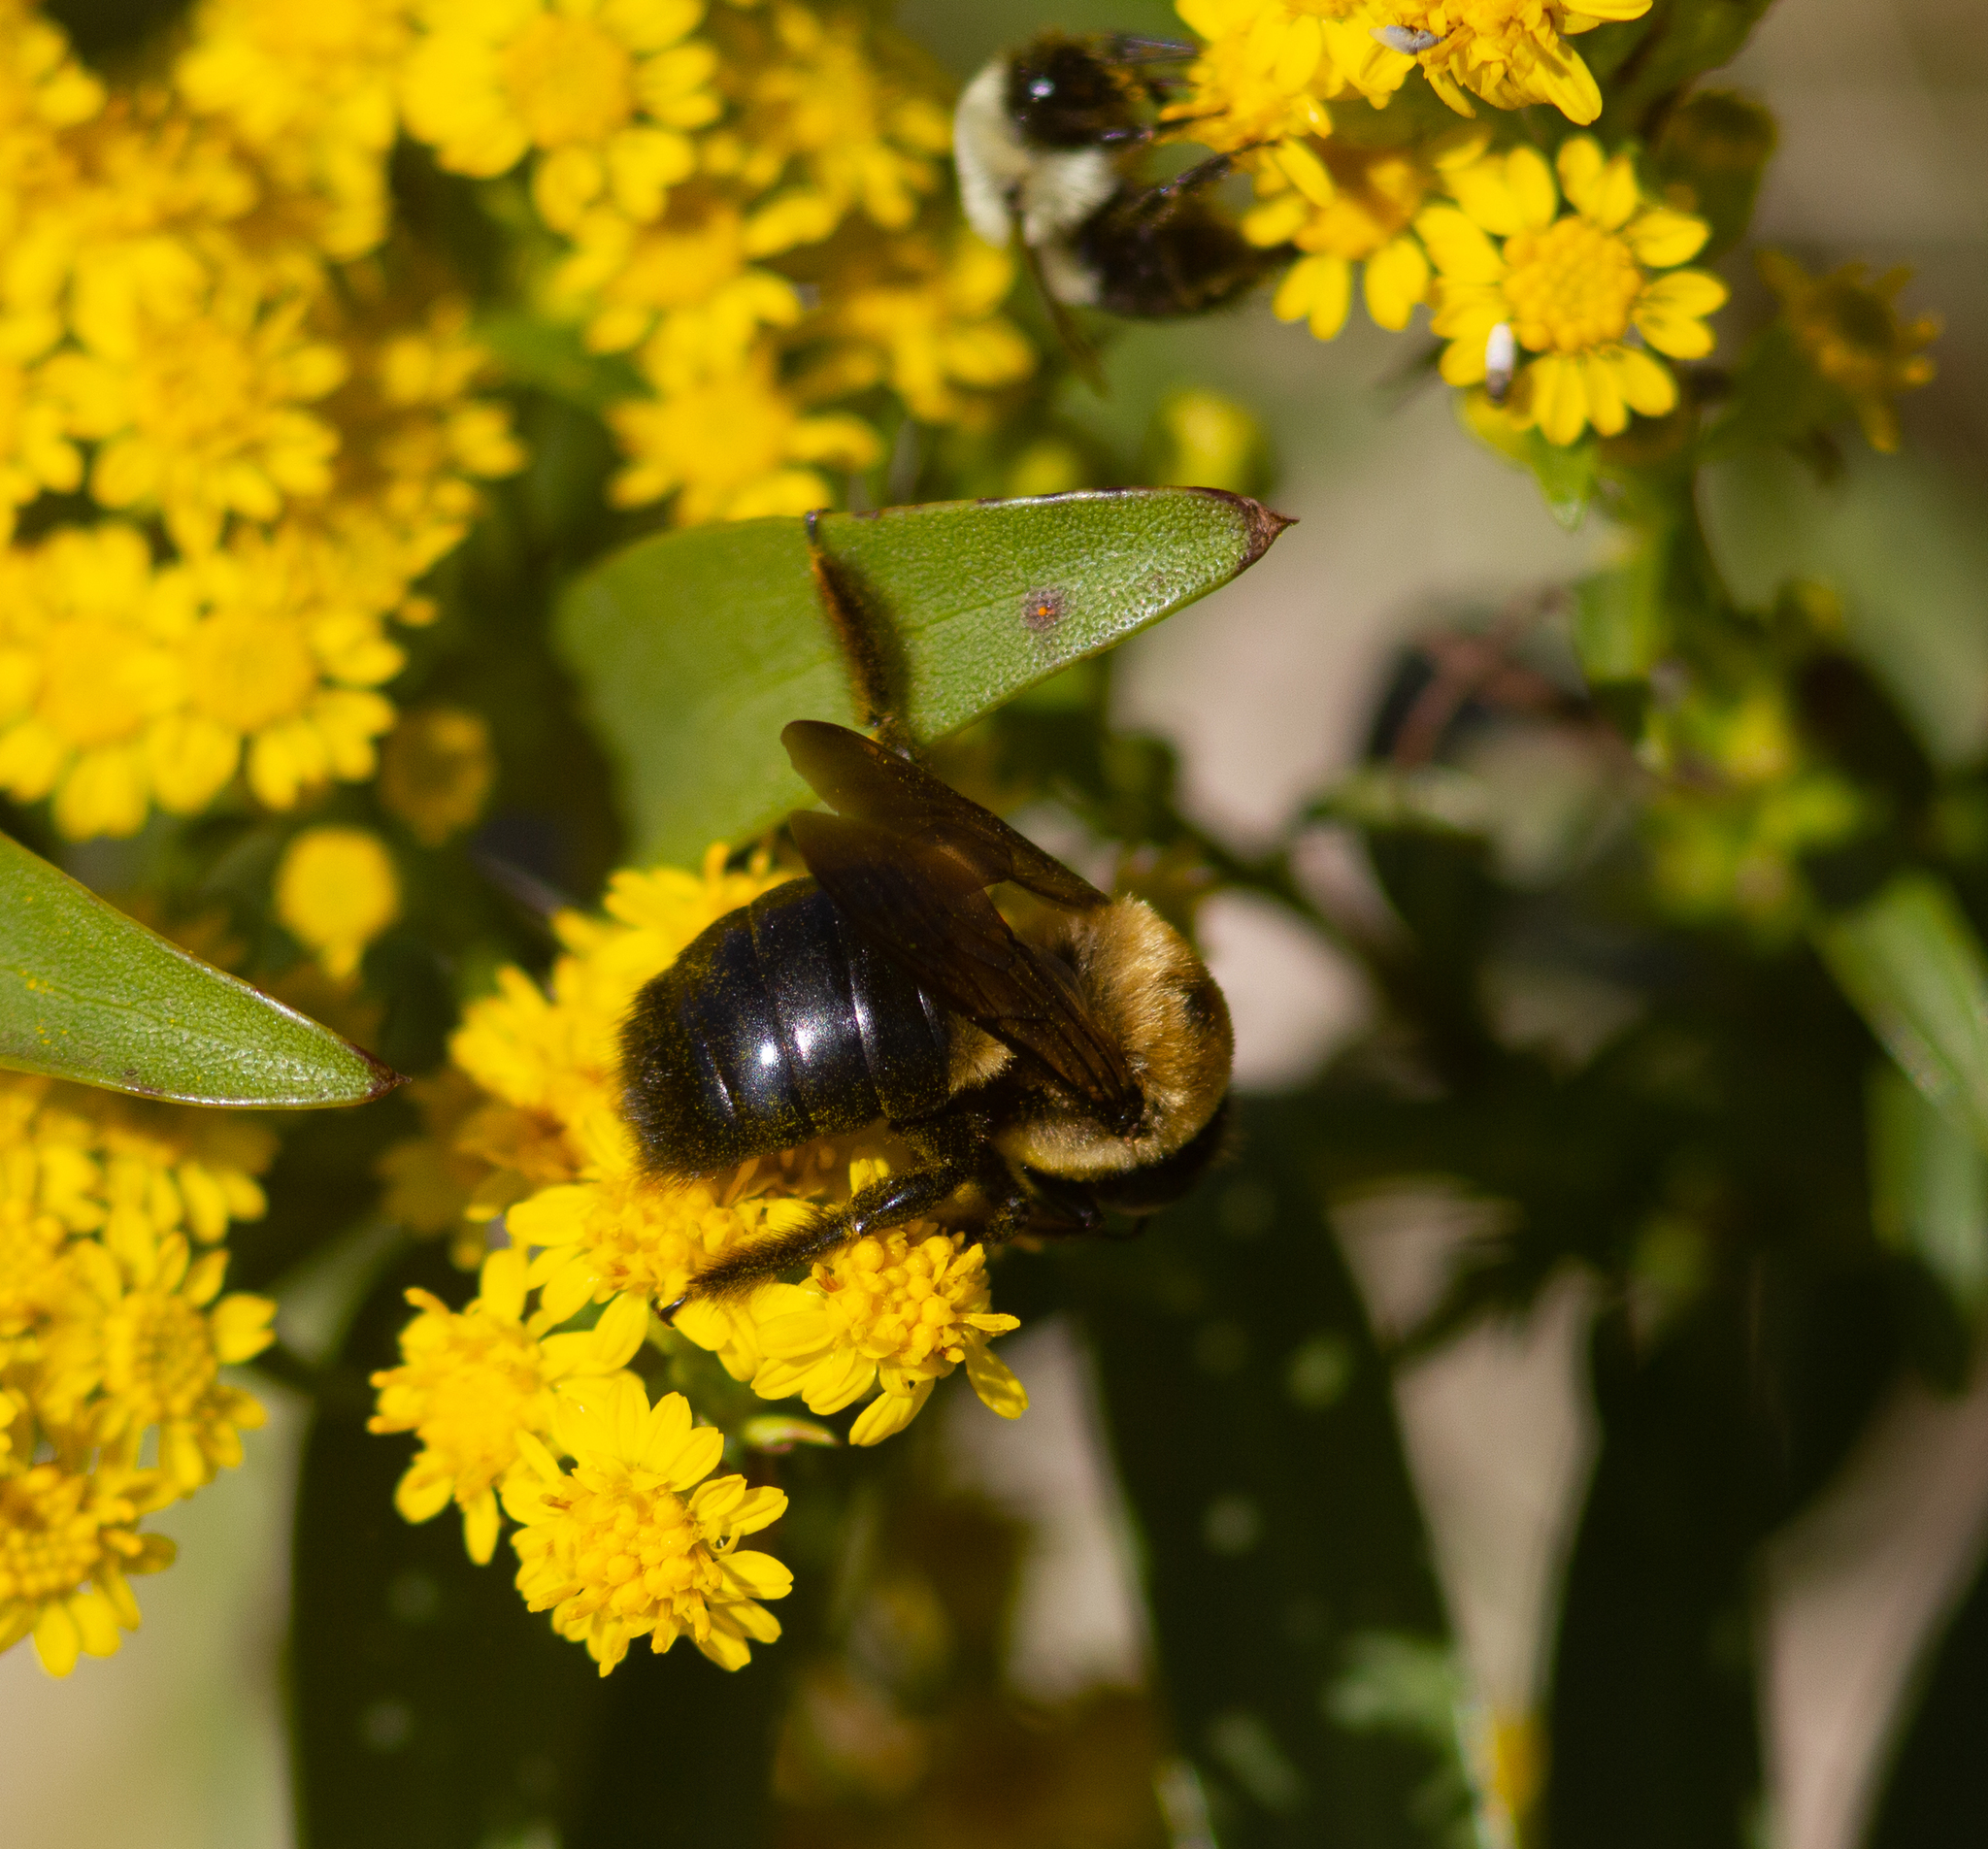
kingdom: Animalia
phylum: Arthropoda
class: Insecta
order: Hymenoptera
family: Apidae
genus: Xylocopa
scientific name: Xylocopa virginica
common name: Carpenter bee
